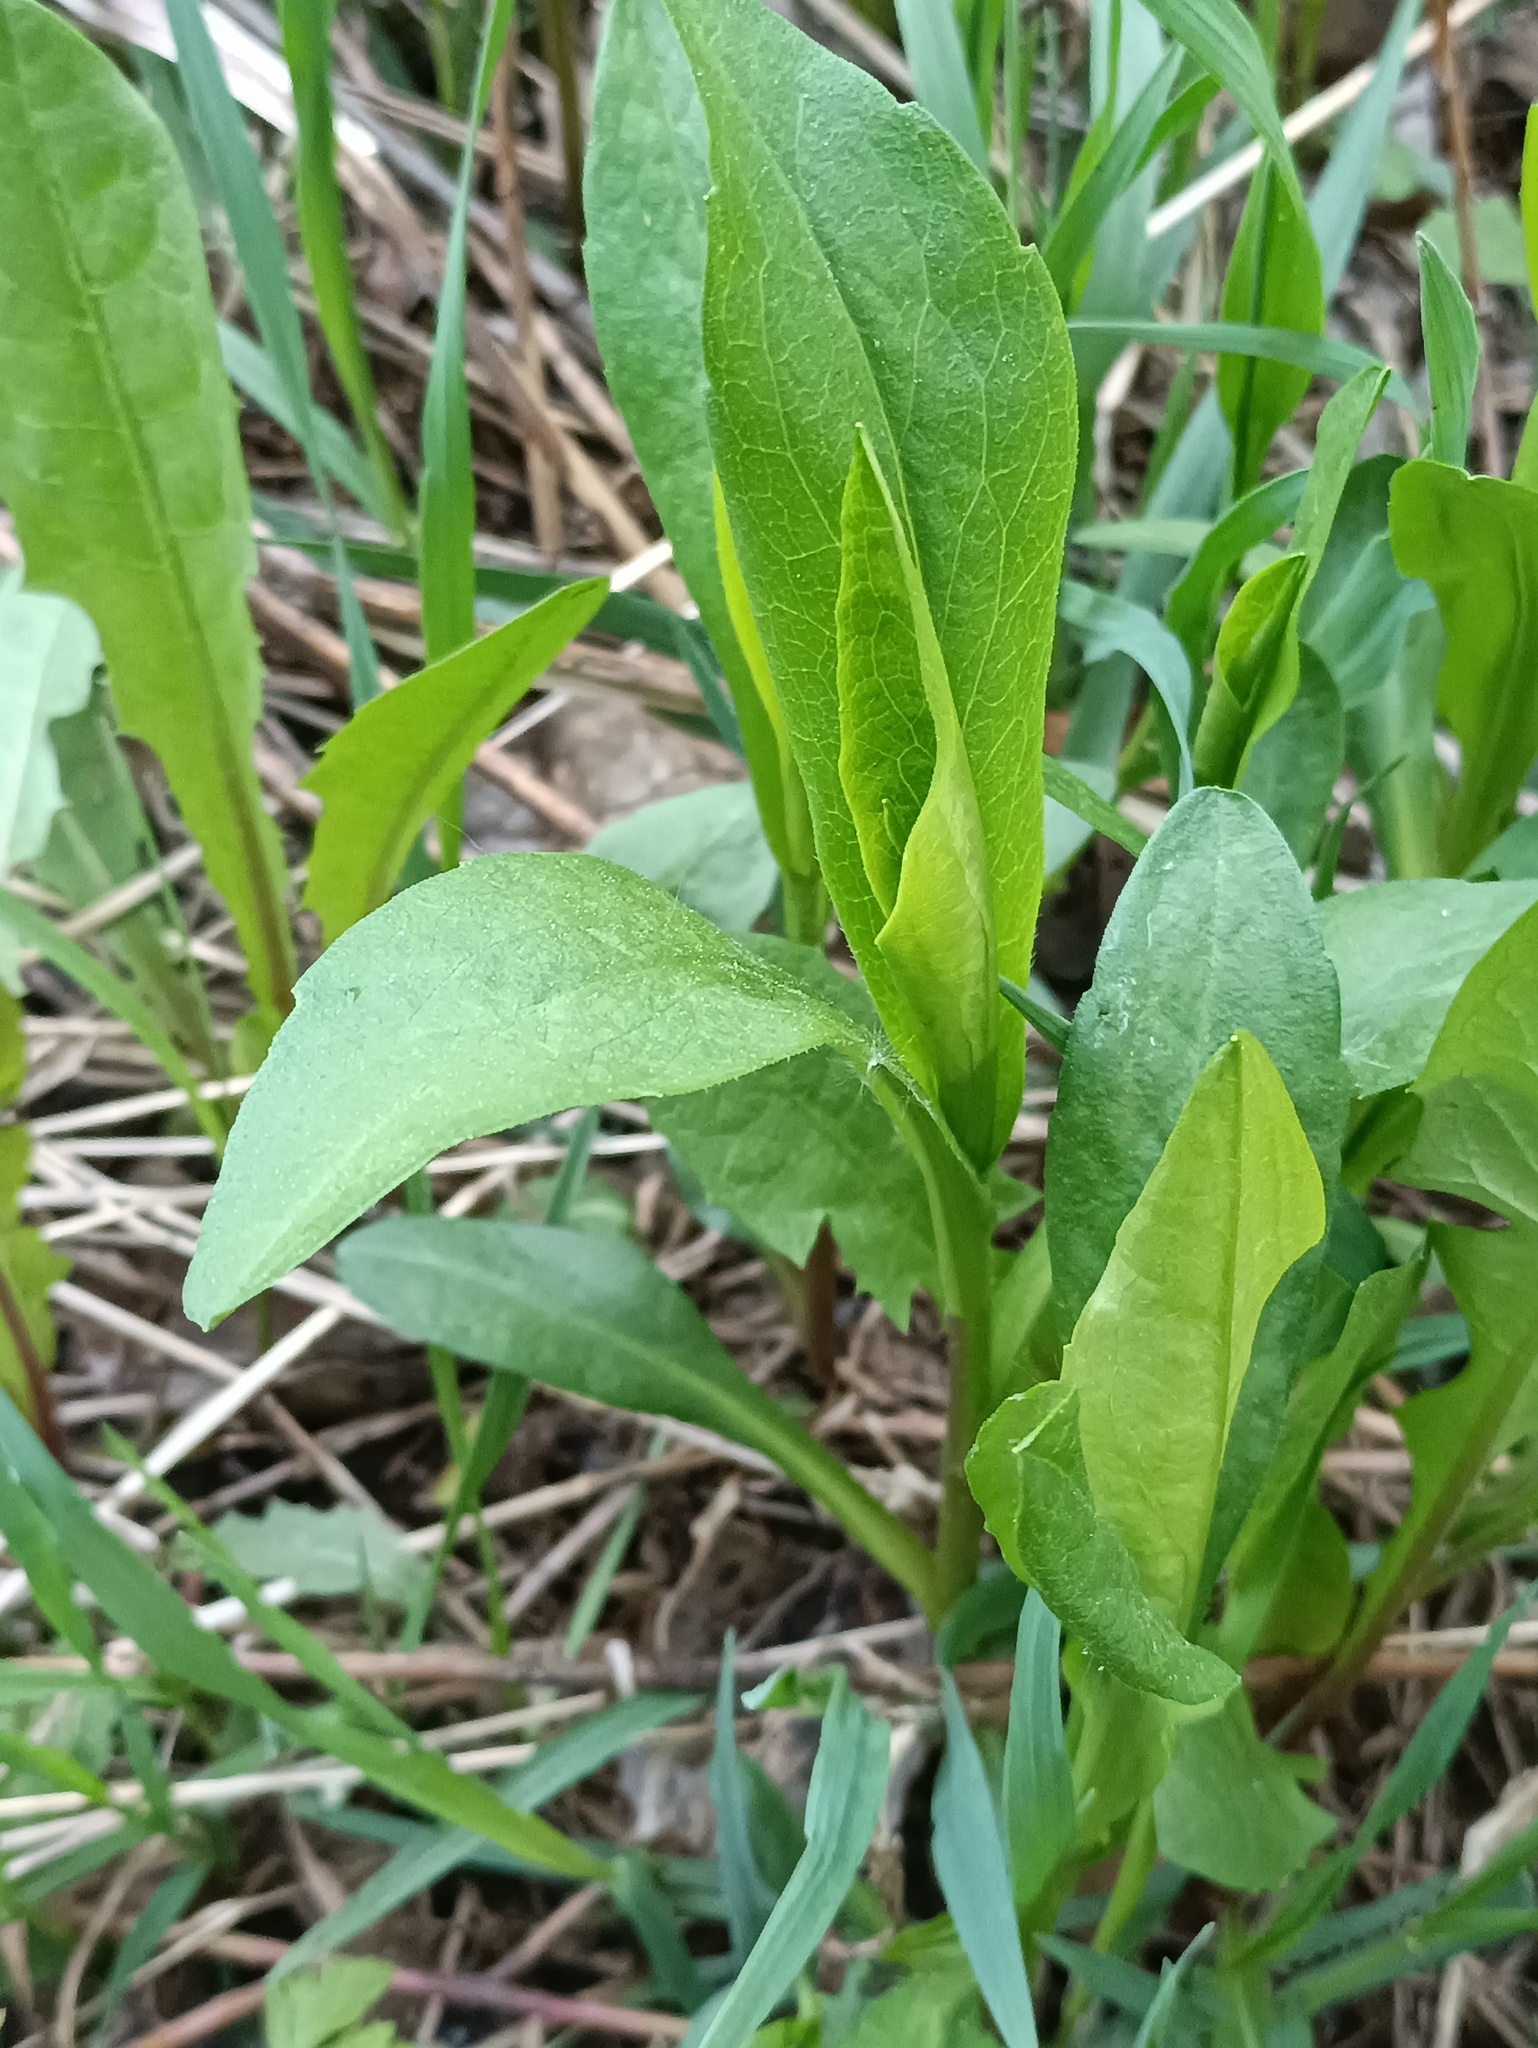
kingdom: Plantae
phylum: Tracheophyta
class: Magnoliopsida
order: Asterales
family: Asteraceae
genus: Solidago
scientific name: Solidago virgaurea
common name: Goldenrod
